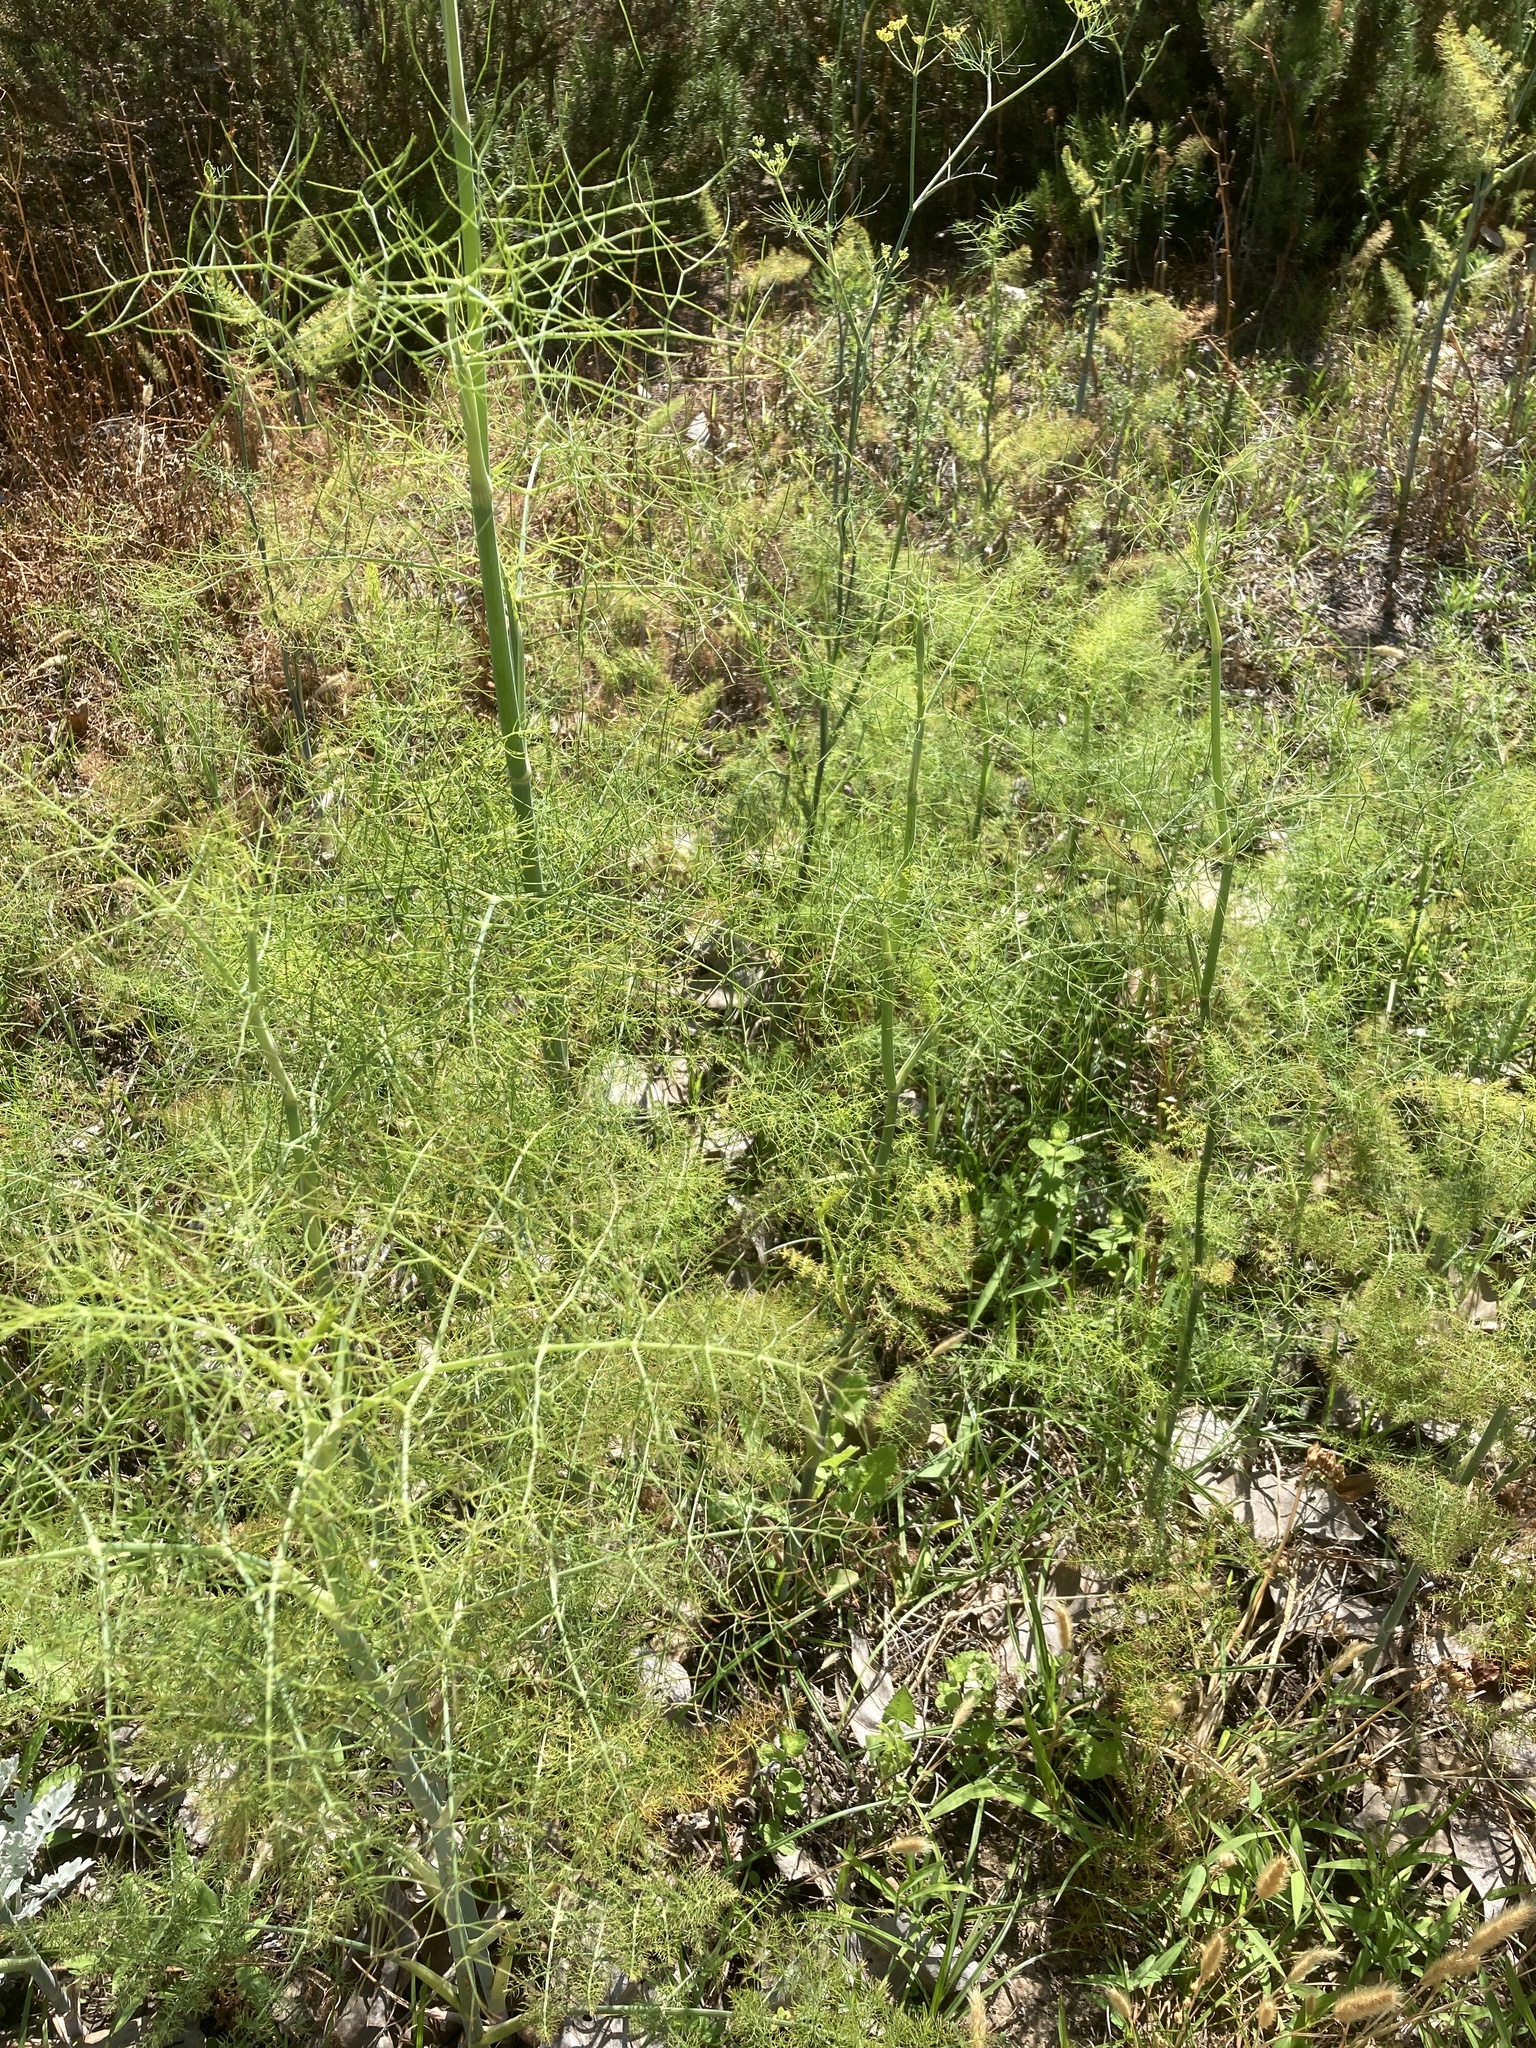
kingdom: Plantae
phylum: Tracheophyta
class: Magnoliopsida
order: Apiales
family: Apiaceae
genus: Foeniculum
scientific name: Foeniculum vulgare
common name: Fennel
